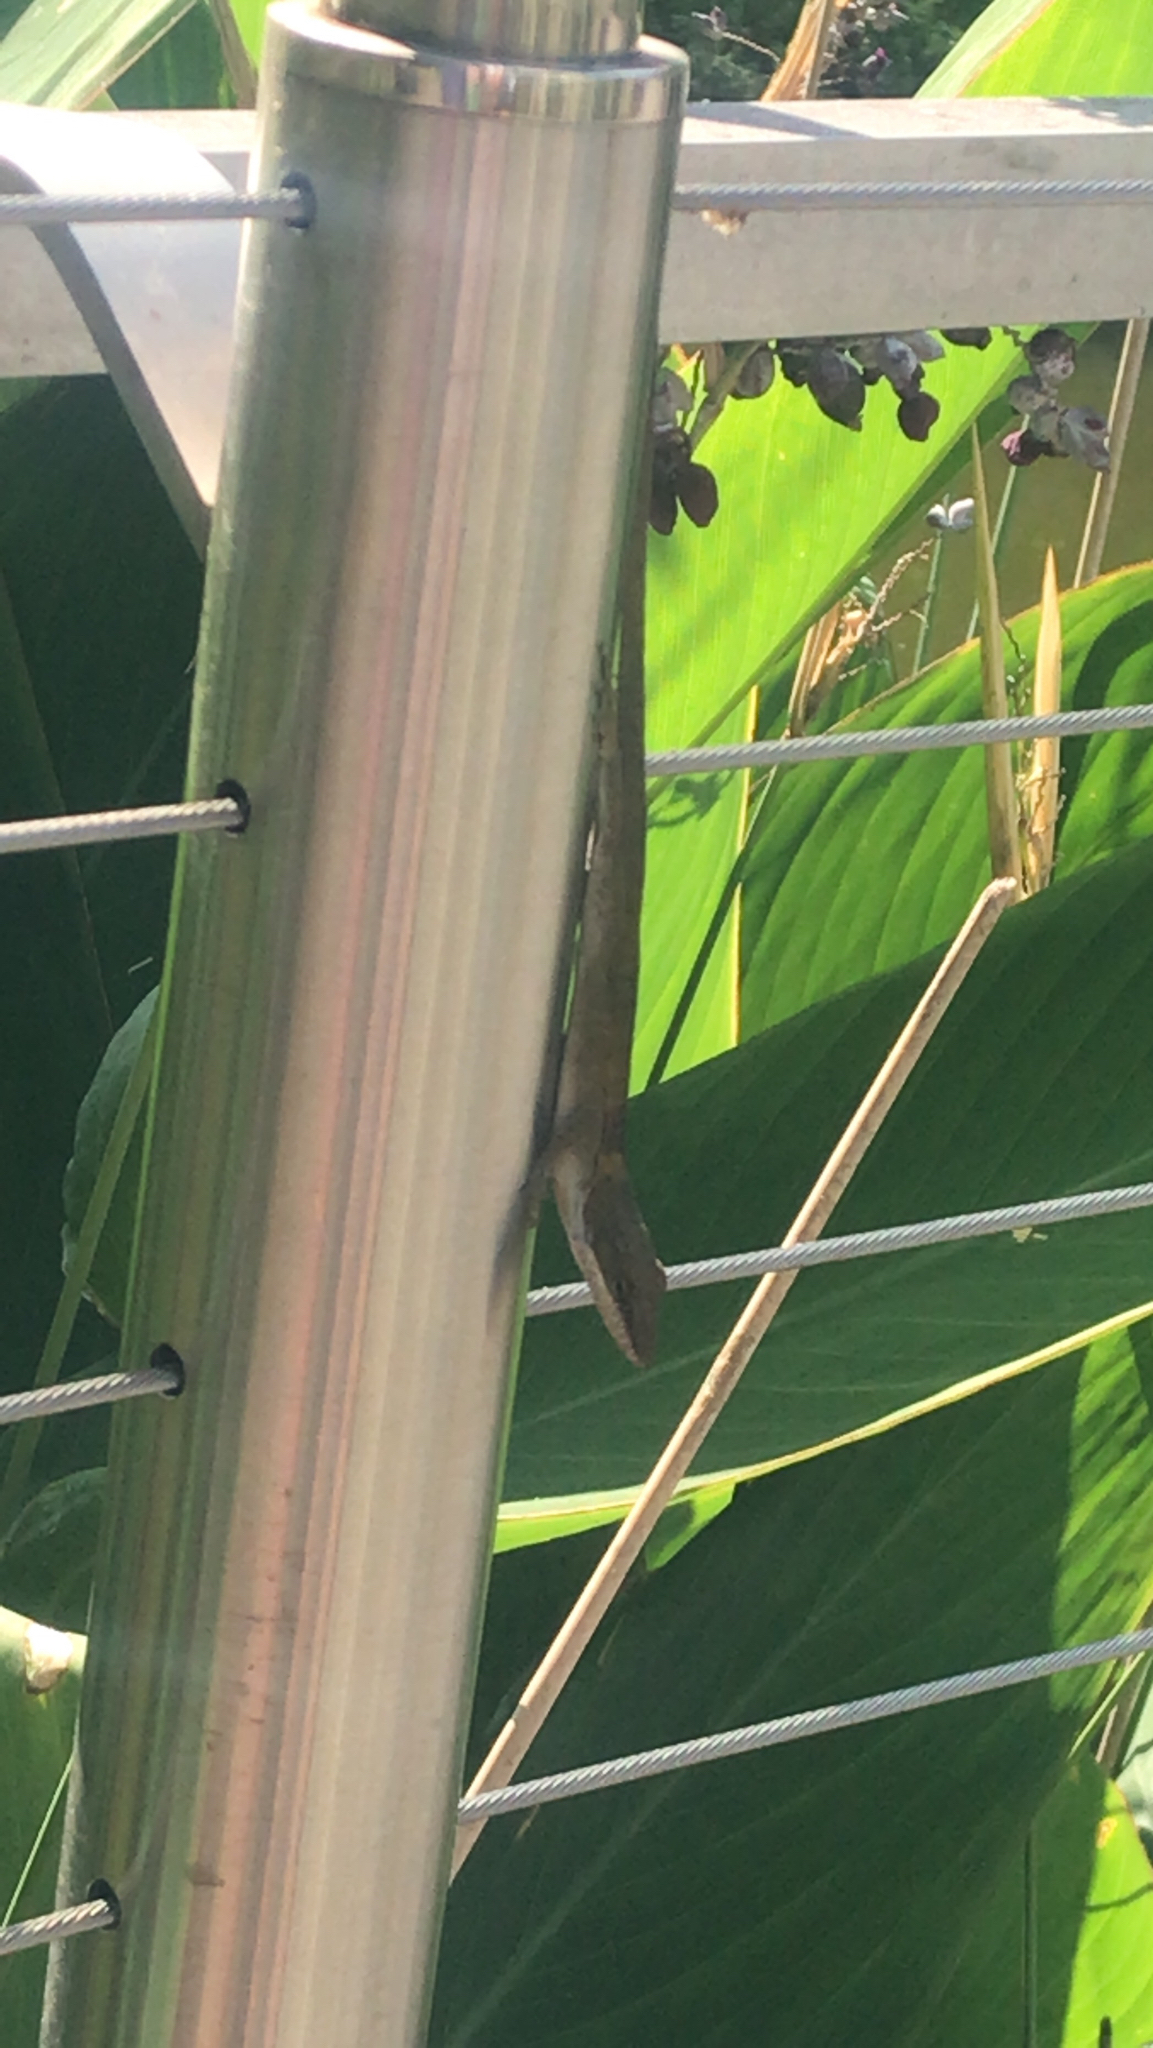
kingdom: Animalia
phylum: Chordata
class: Squamata
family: Dactyloidae
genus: Anolis
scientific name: Anolis carolinensis
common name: Green anole
